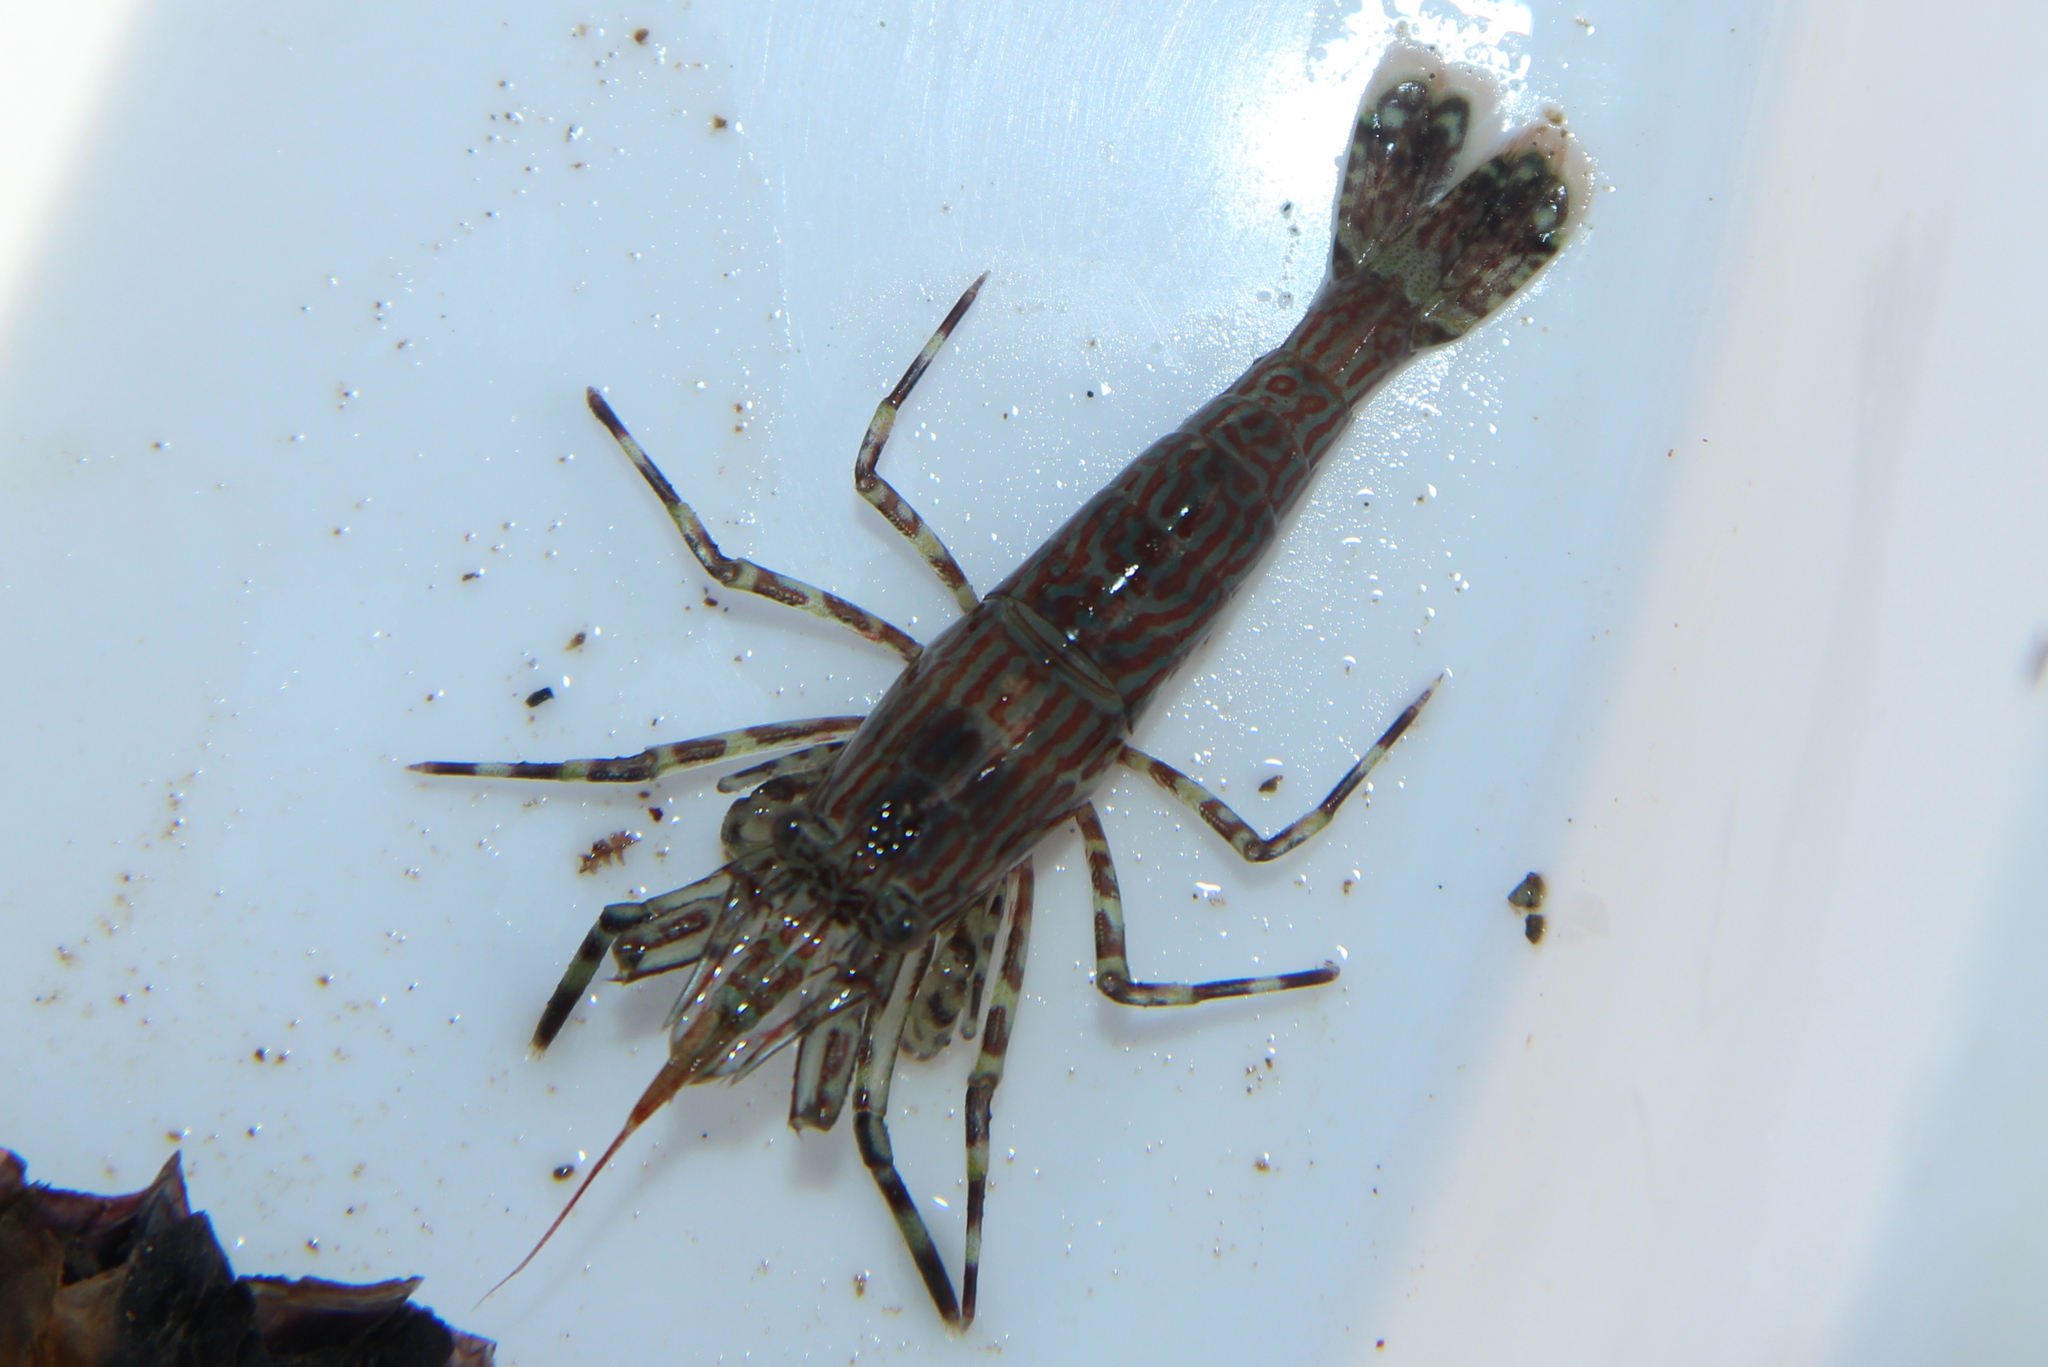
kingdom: Animalia
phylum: Arthropoda
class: Malacostraca
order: Decapoda
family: Hippolytidae
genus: Alope
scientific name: Alope spinifrons
